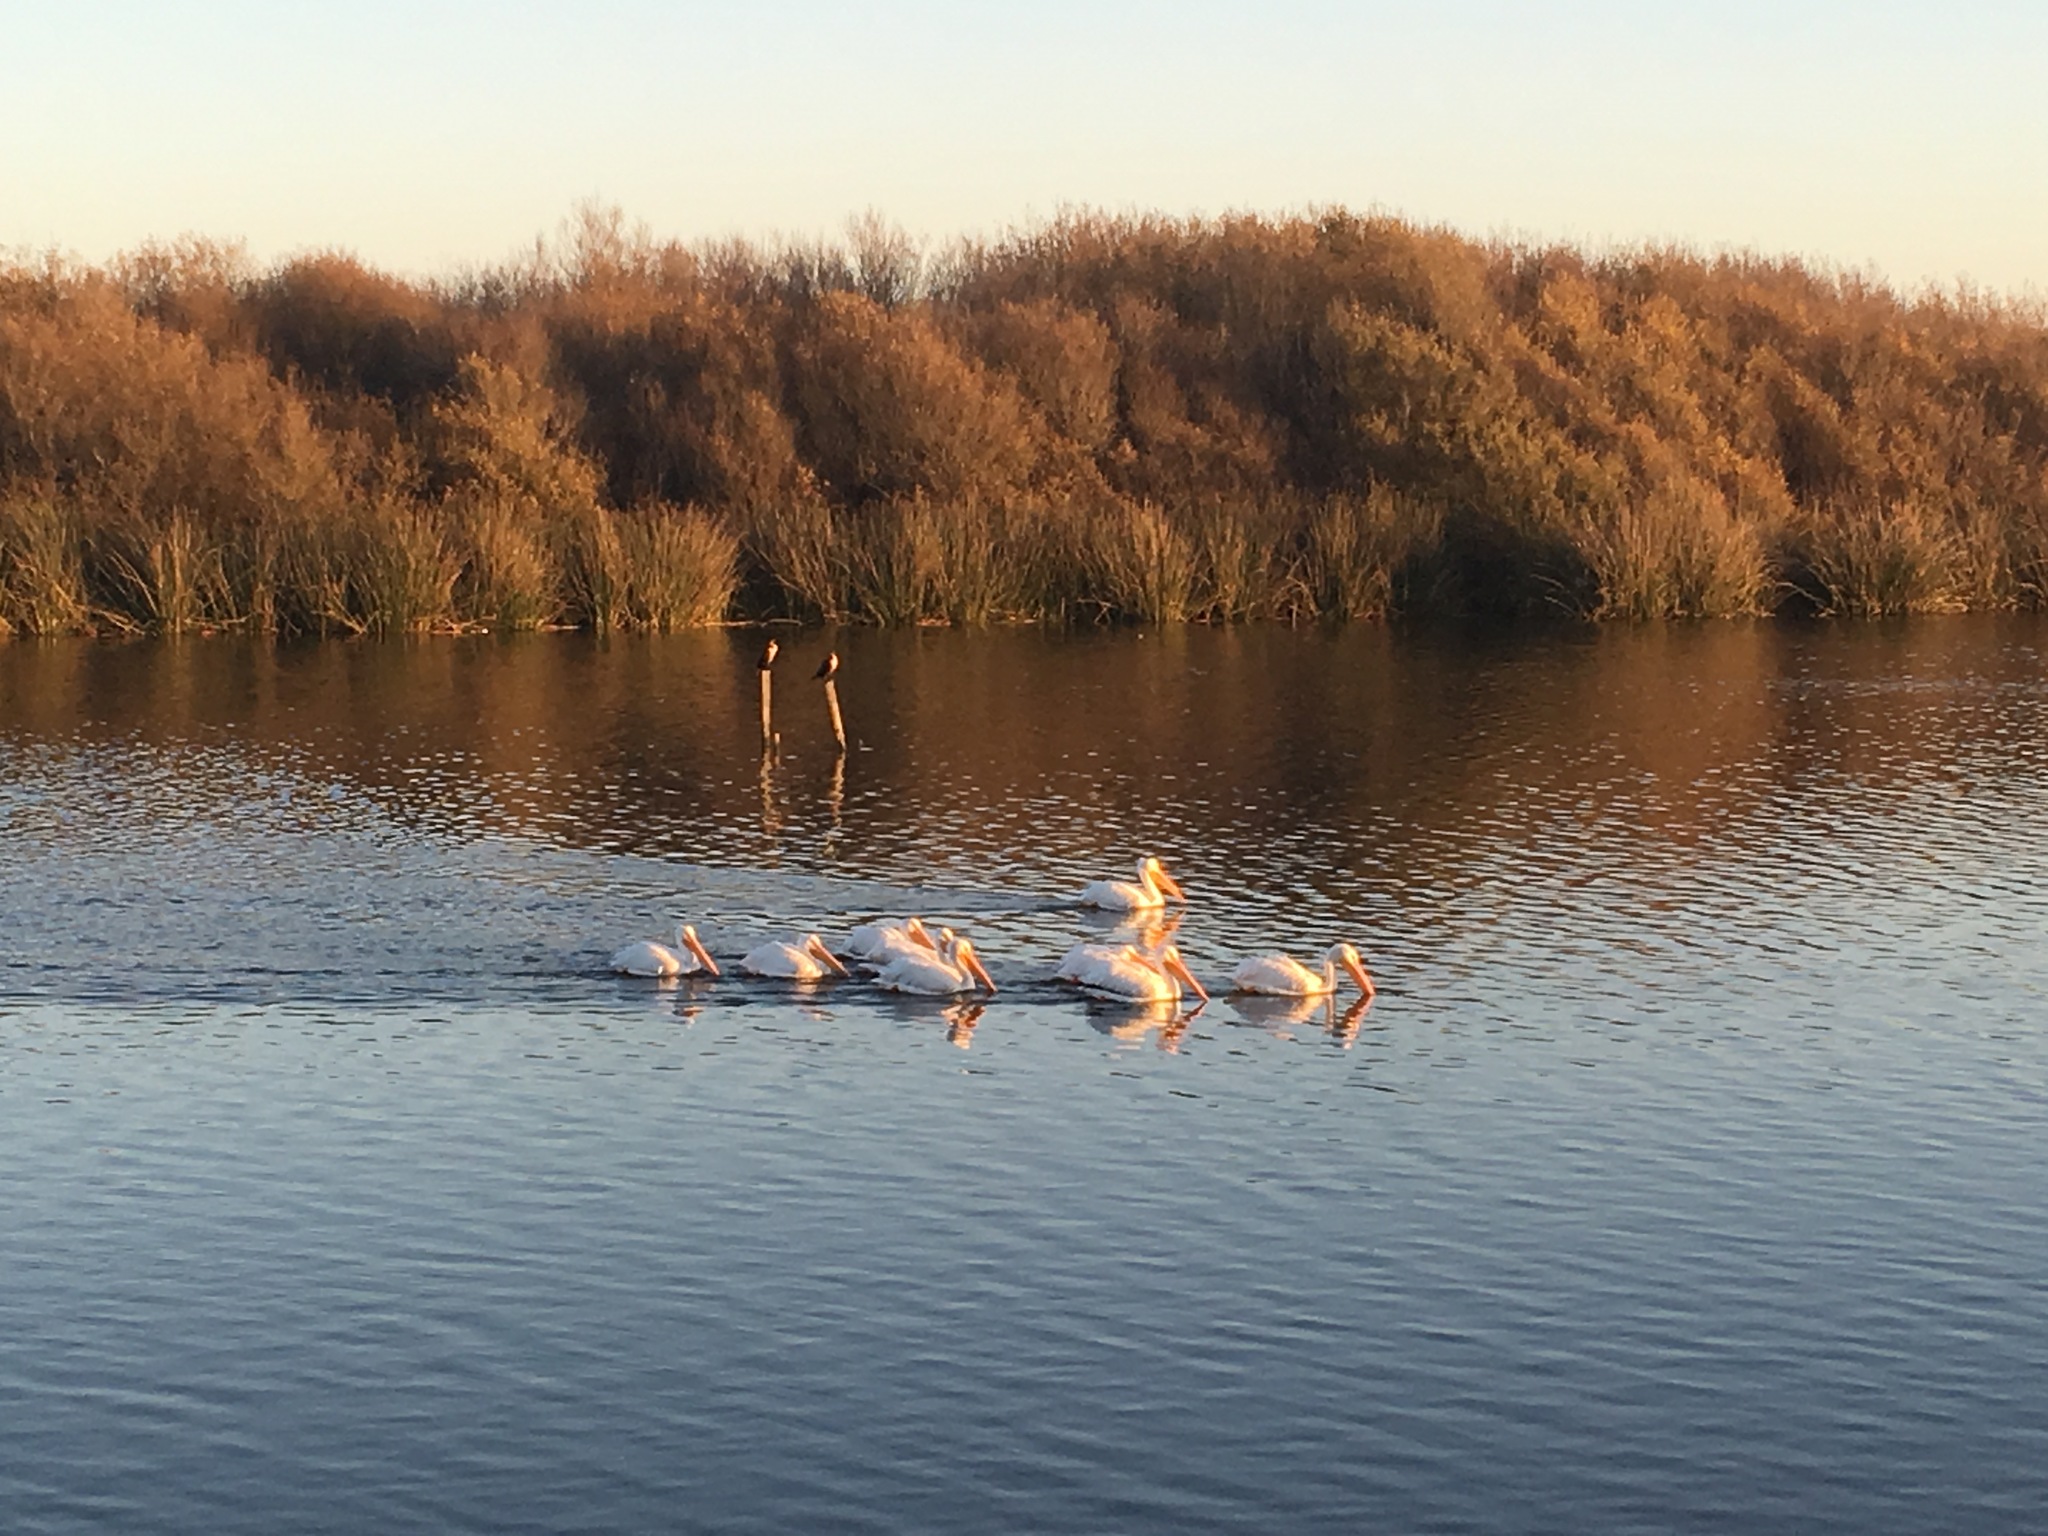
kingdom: Animalia
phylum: Chordata
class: Aves
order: Pelecaniformes
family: Pelecanidae
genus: Pelecanus
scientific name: Pelecanus erythrorhynchos
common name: American white pelican
